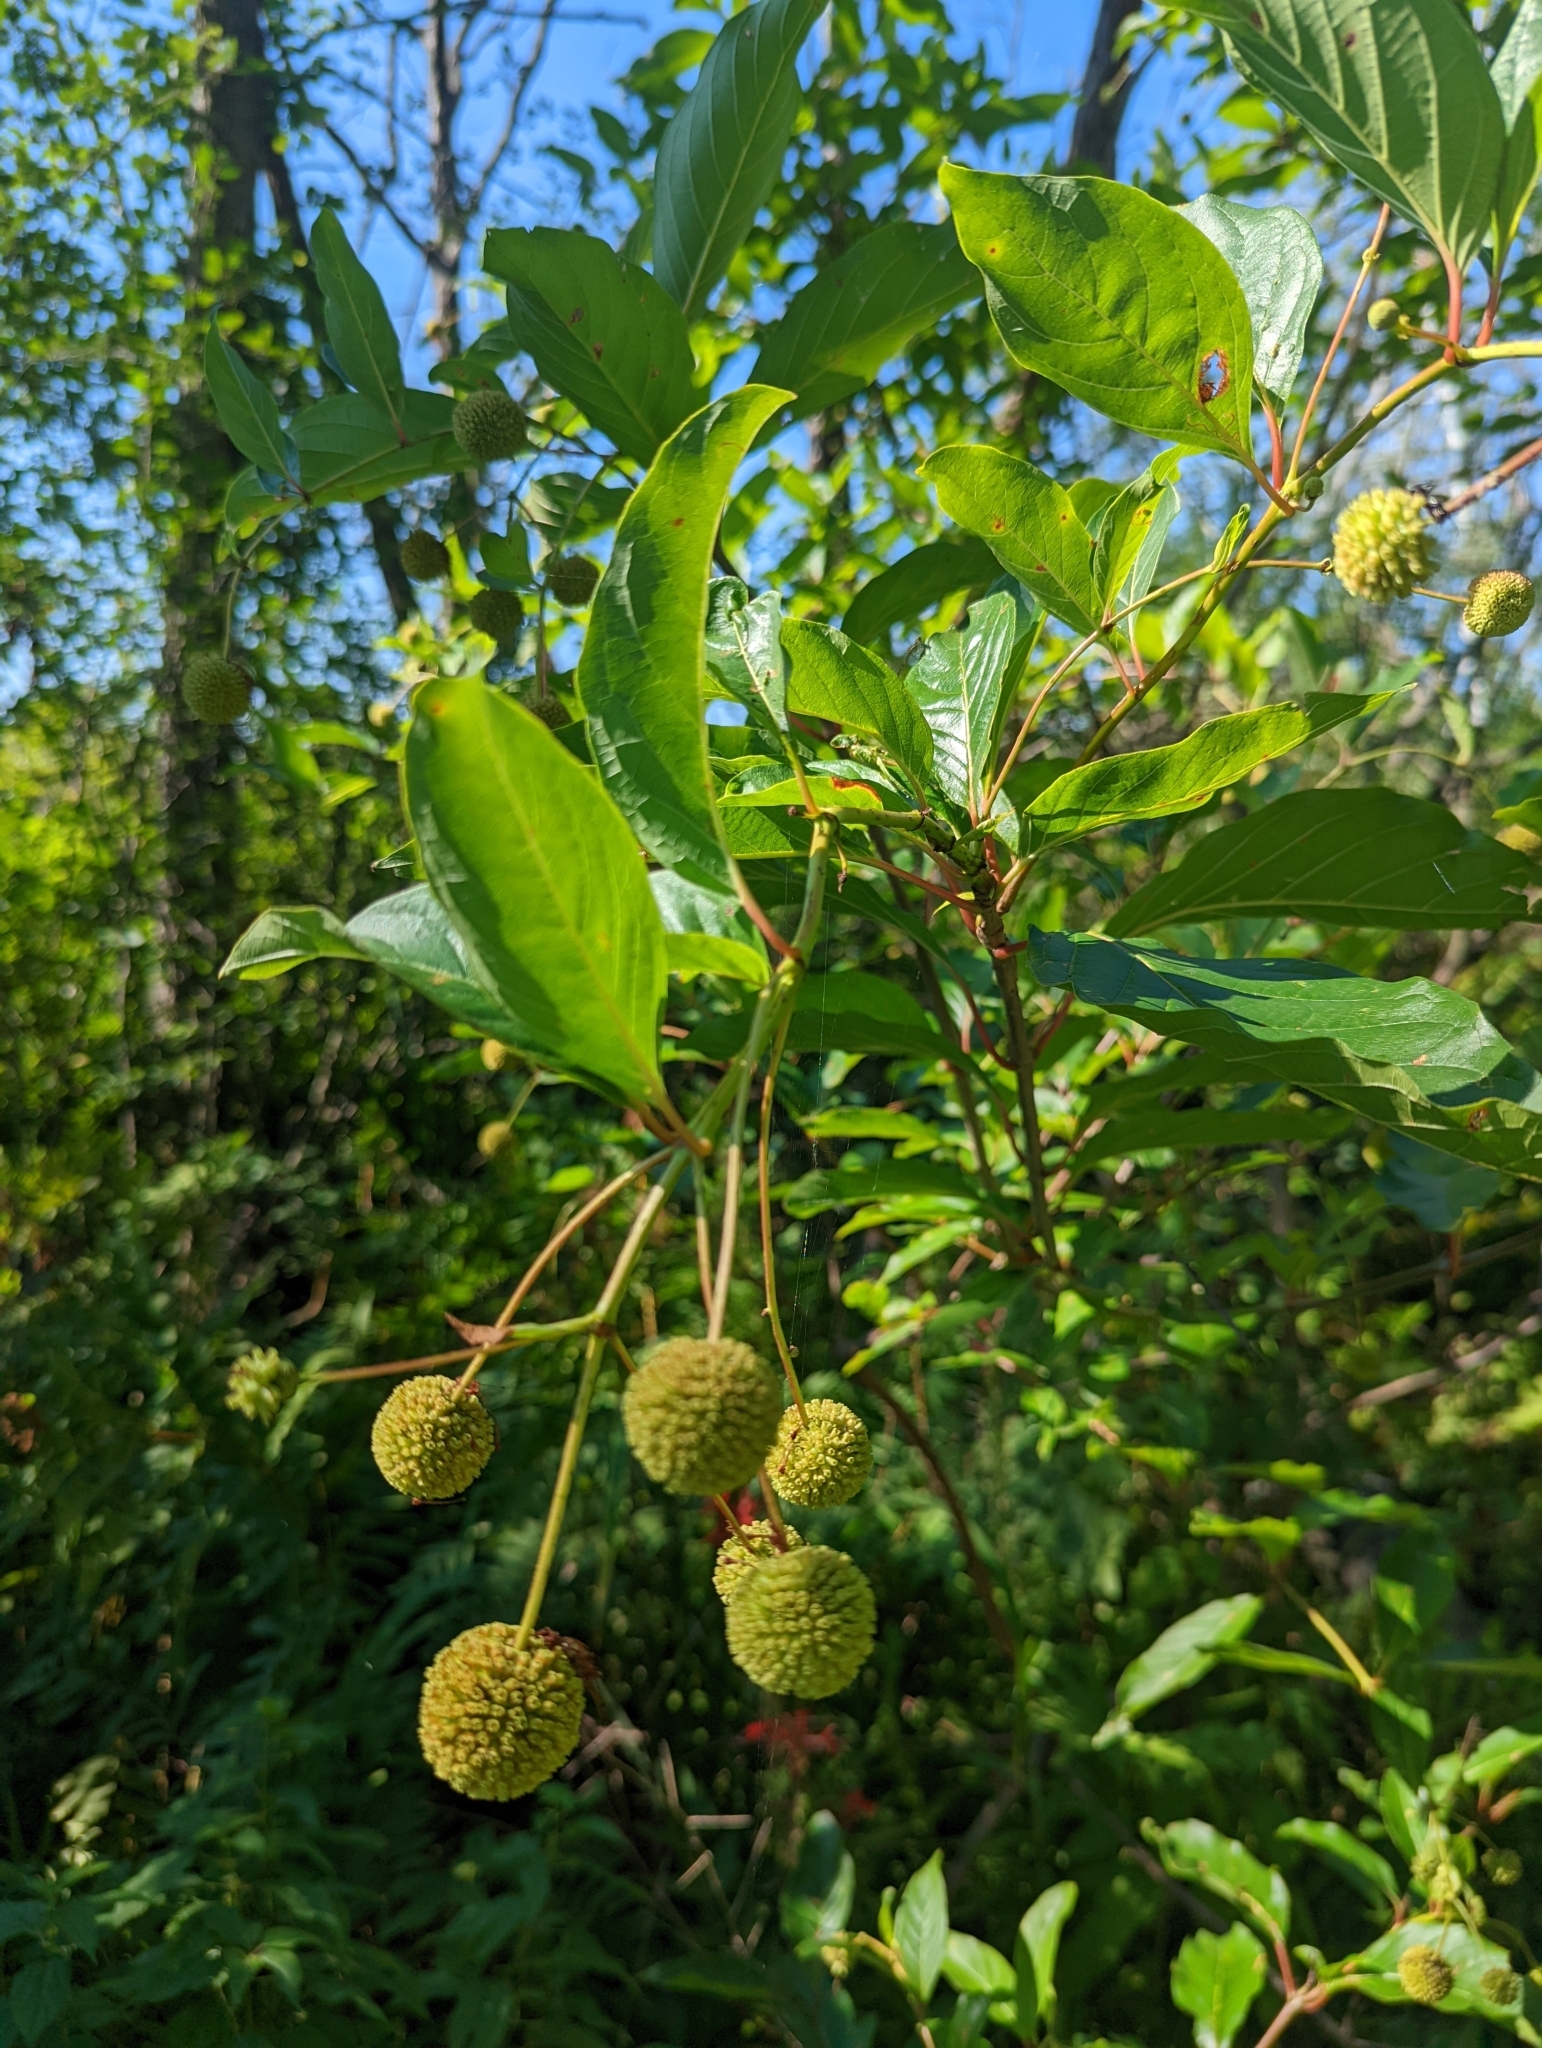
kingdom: Plantae
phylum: Tracheophyta
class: Magnoliopsida
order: Gentianales
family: Rubiaceae
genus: Cephalanthus
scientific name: Cephalanthus occidentalis
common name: Button-willow
